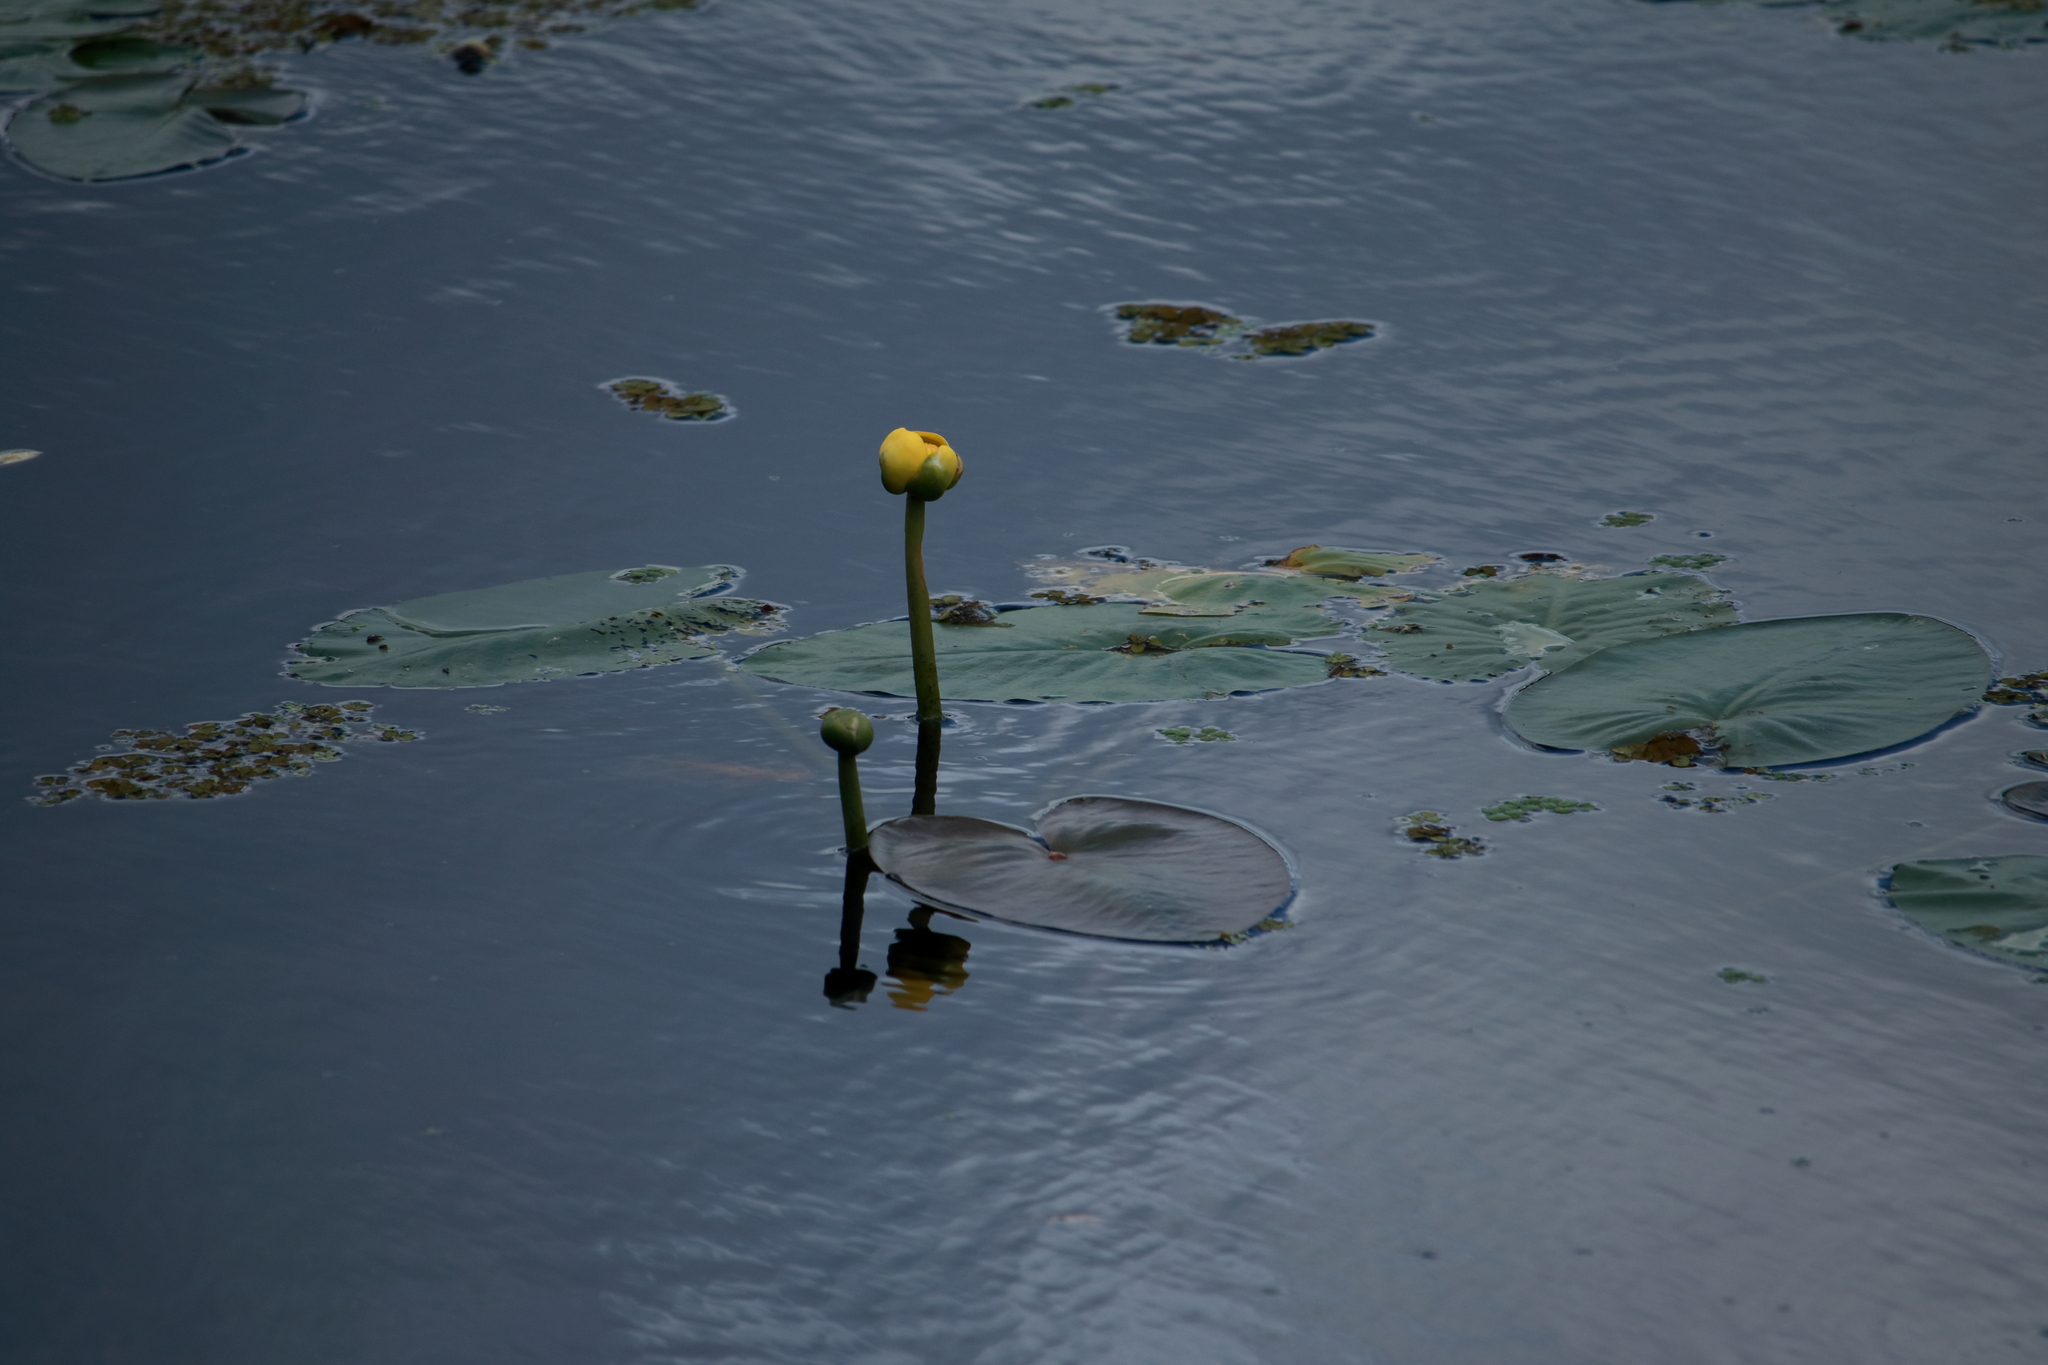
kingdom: Plantae
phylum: Tracheophyta
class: Magnoliopsida
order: Nymphaeales
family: Nymphaeaceae
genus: Nuphar
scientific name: Nuphar advena
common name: Spatter-dock
